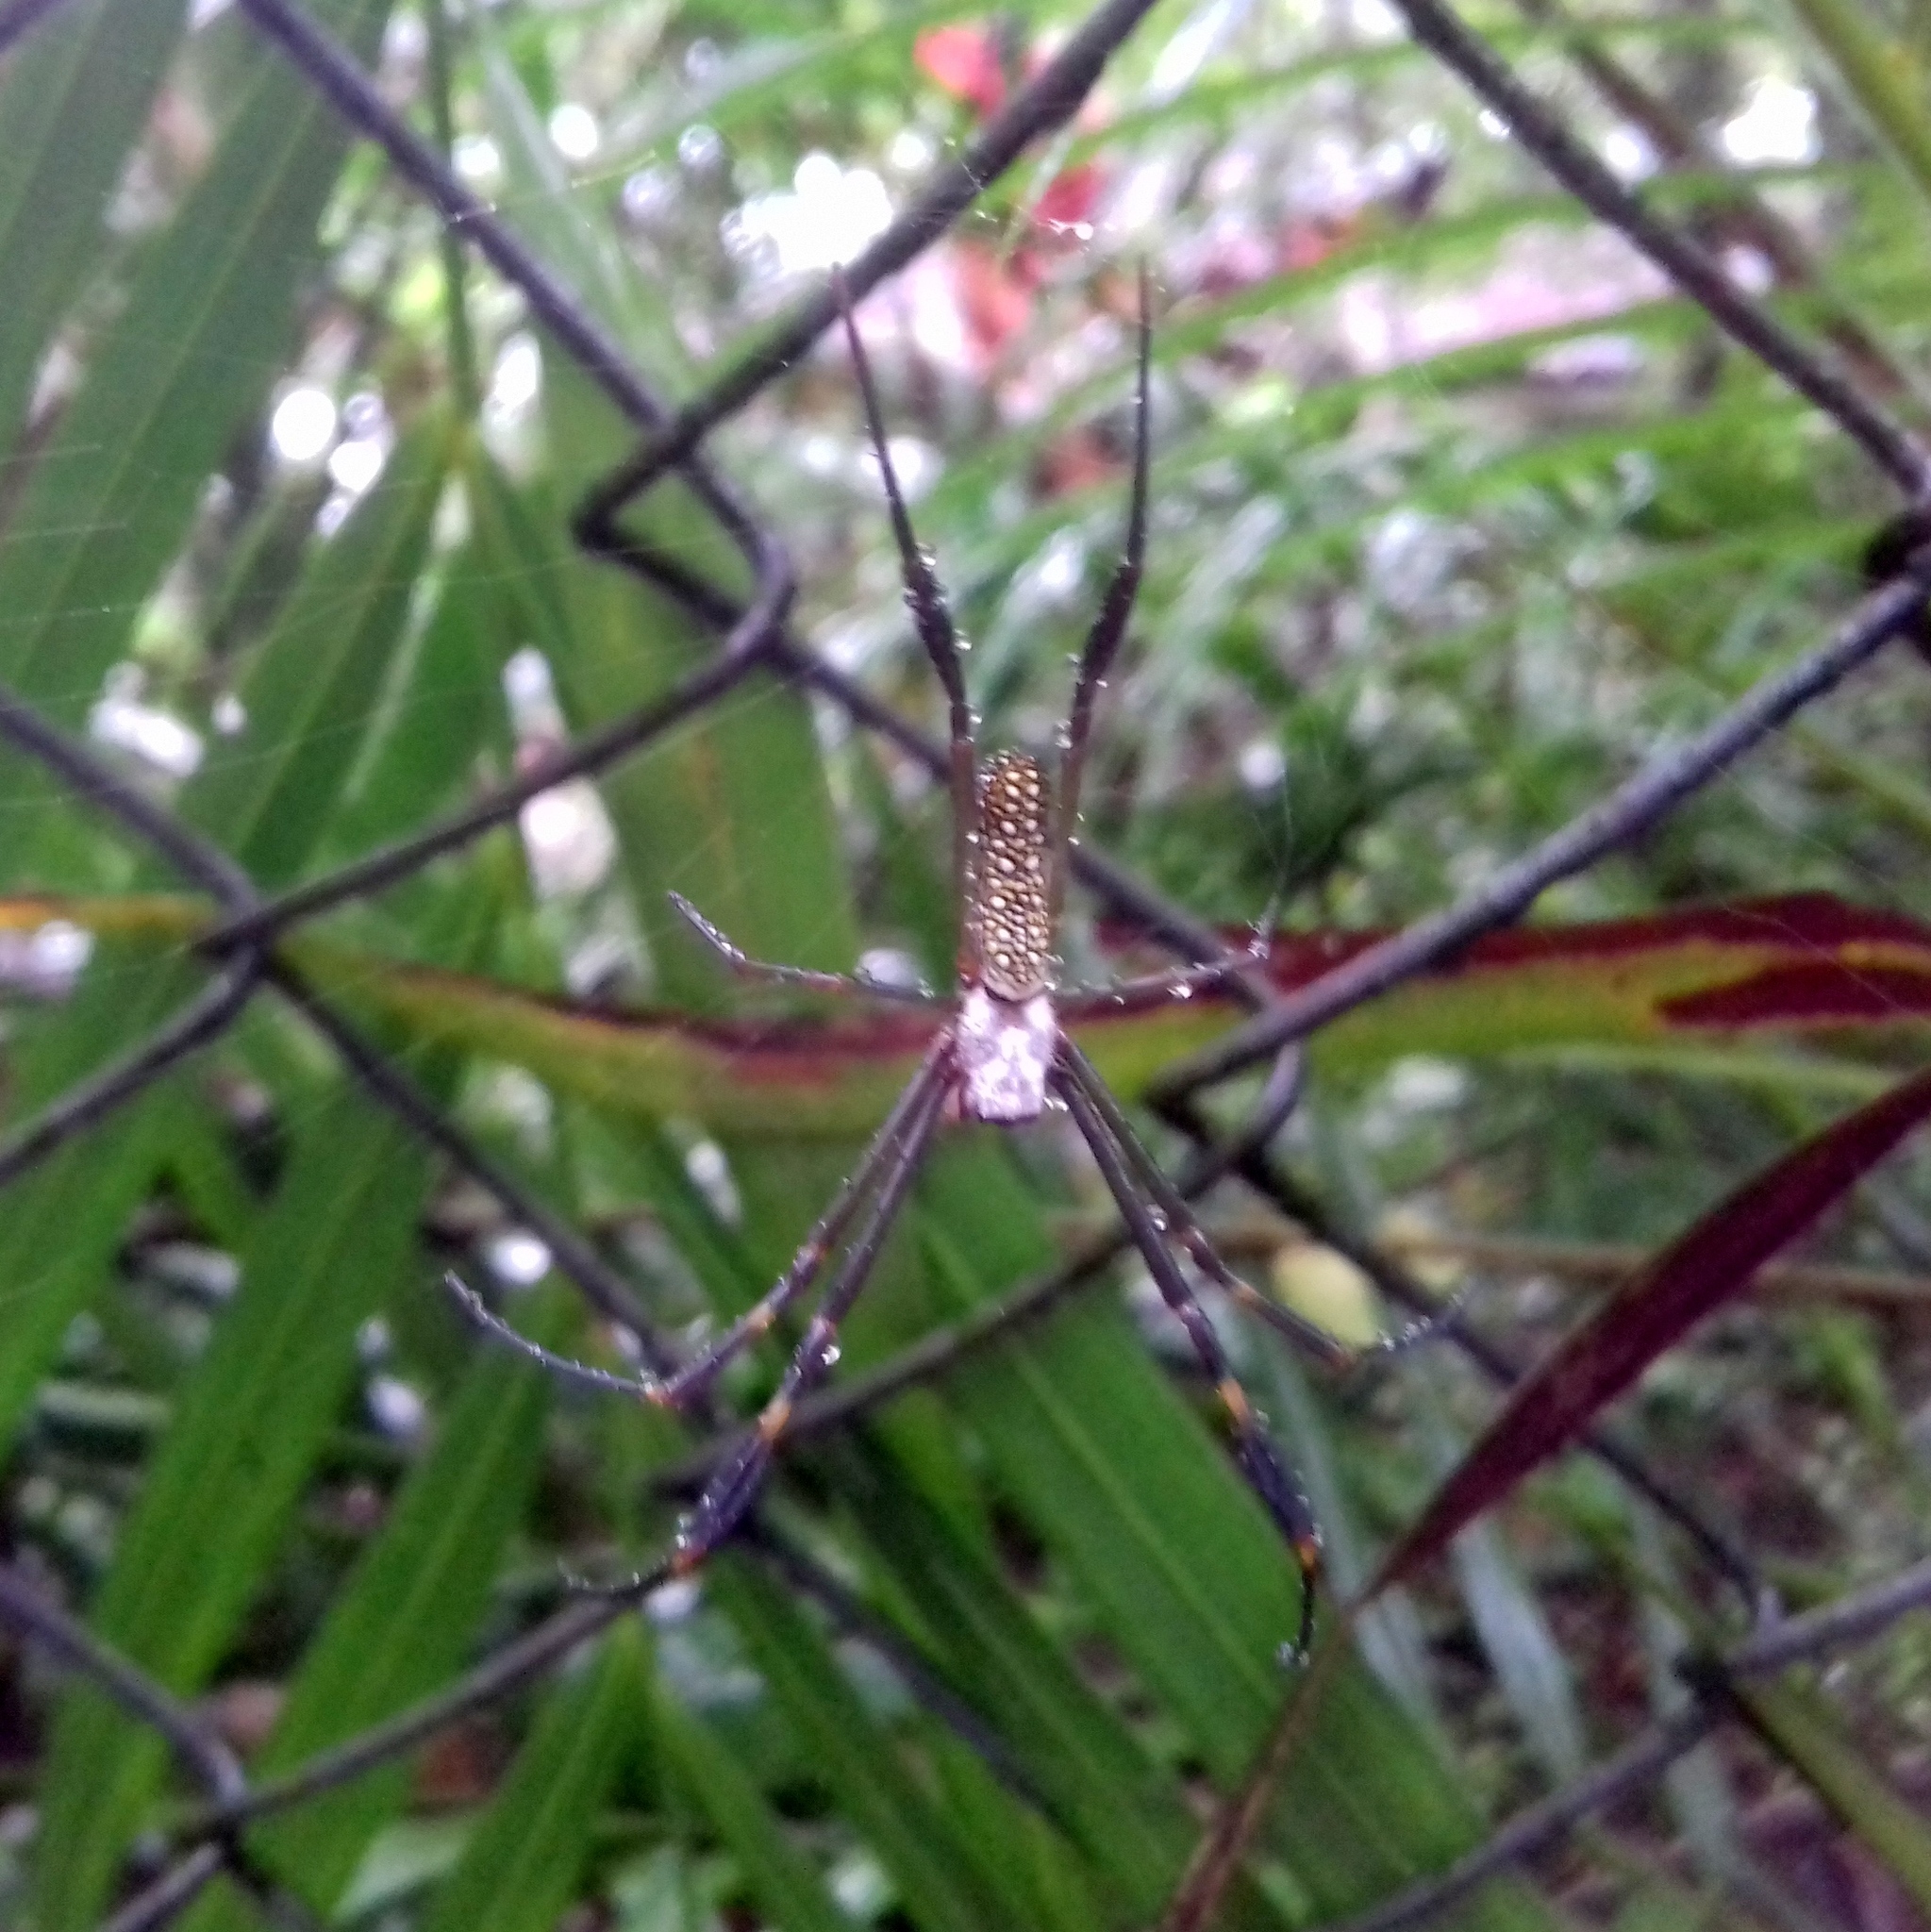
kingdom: Animalia
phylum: Arthropoda
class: Arachnida
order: Araneae
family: Araneidae
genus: Trichonephila
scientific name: Trichonephila clavipes
